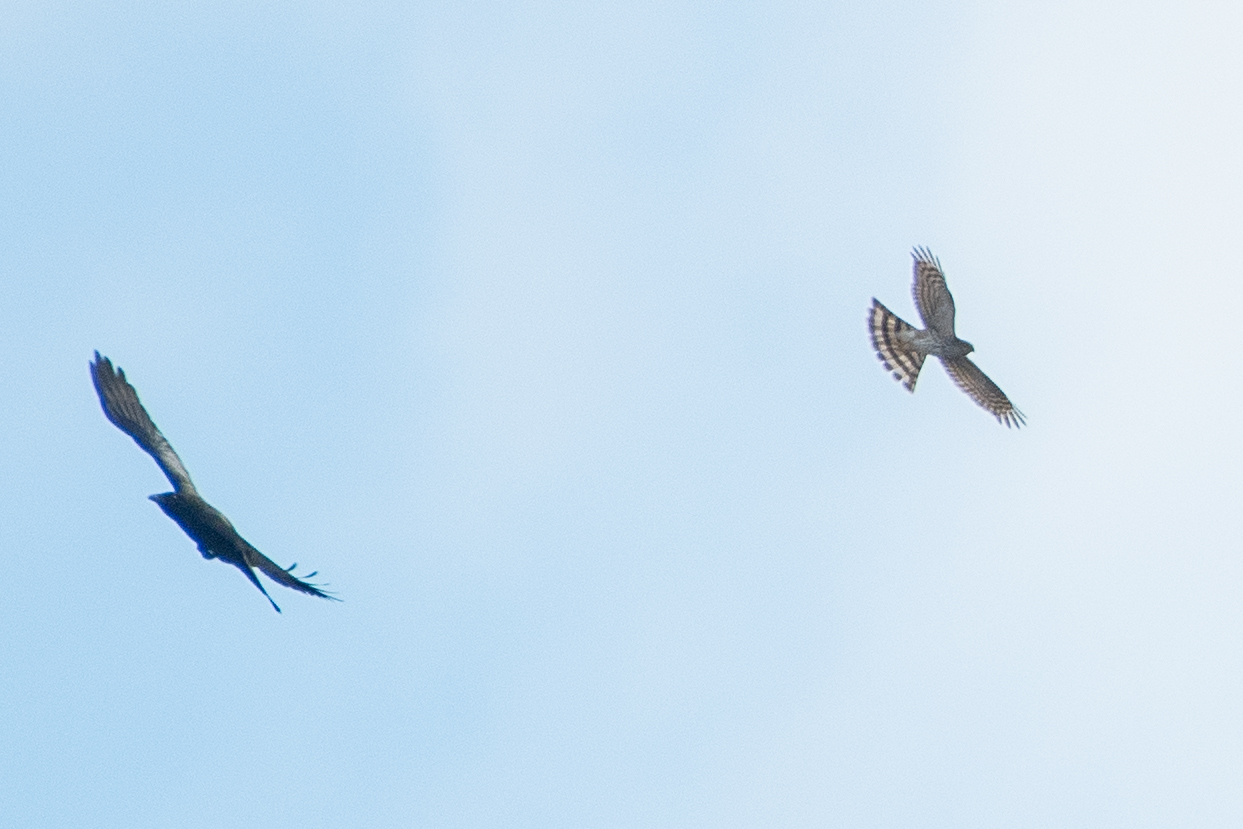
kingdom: Animalia
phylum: Chordata
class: Aves
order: Accipitriformes
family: Accipitridae
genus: Accipiter
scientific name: Accipiter striatus
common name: Sharp-shinned hawk
